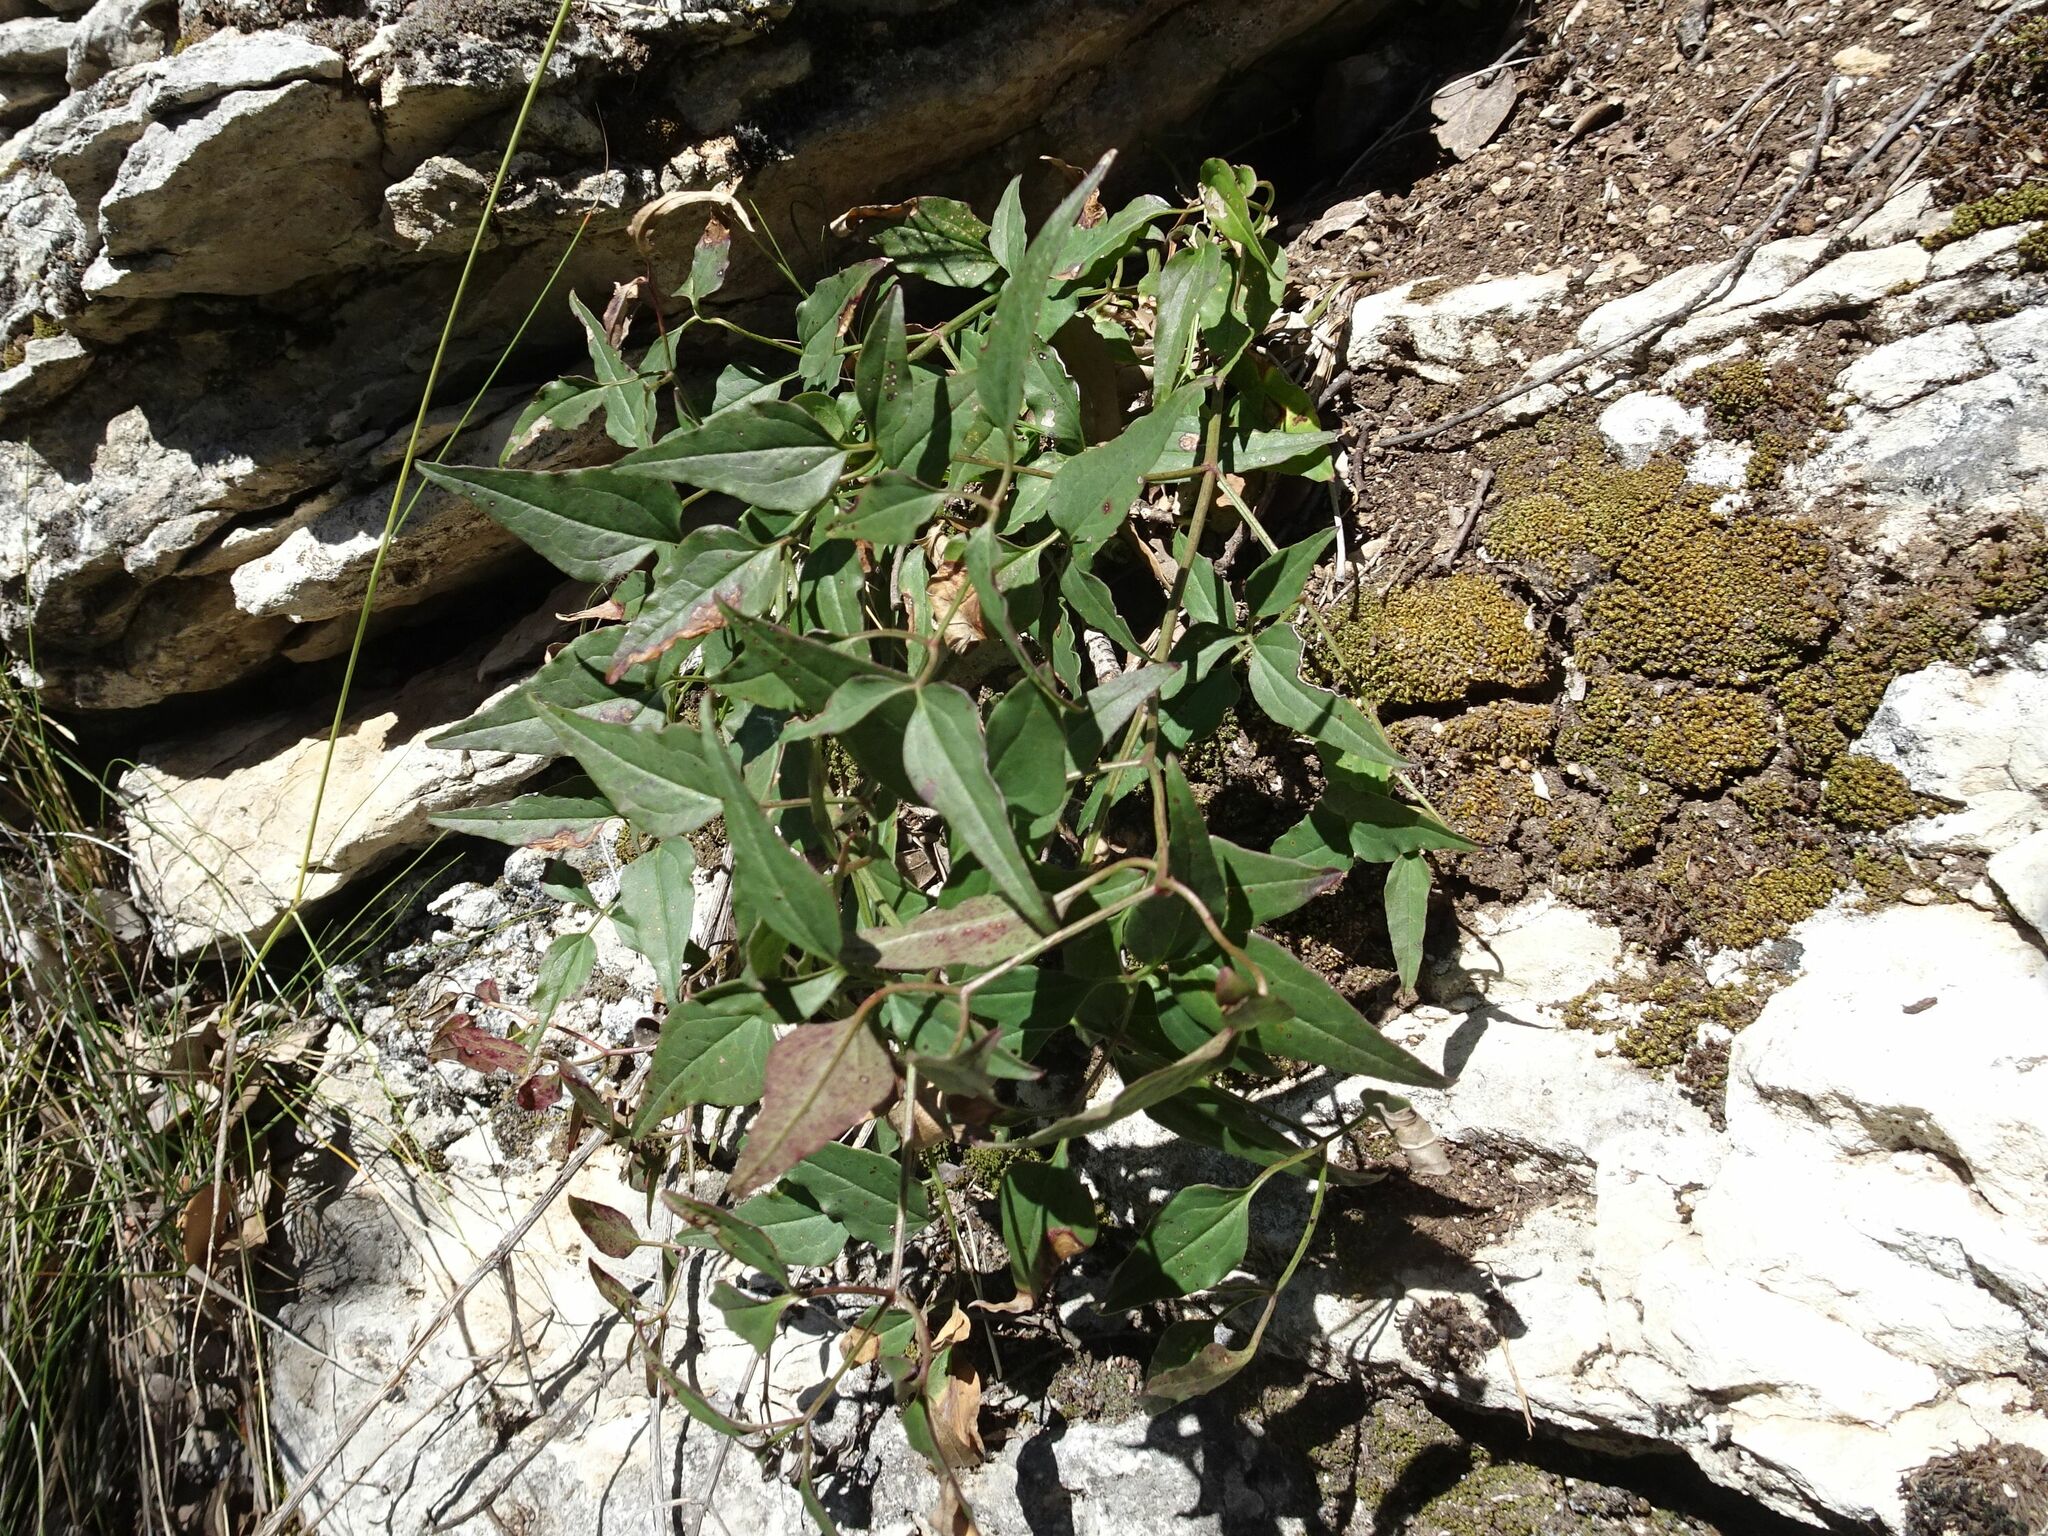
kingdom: Plantae
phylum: Tracheophyta
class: Magnoliopsida
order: Ranunculales
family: Ranunculaceae
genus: Clematis
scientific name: Clematis flammula
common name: Virgin's-bower
